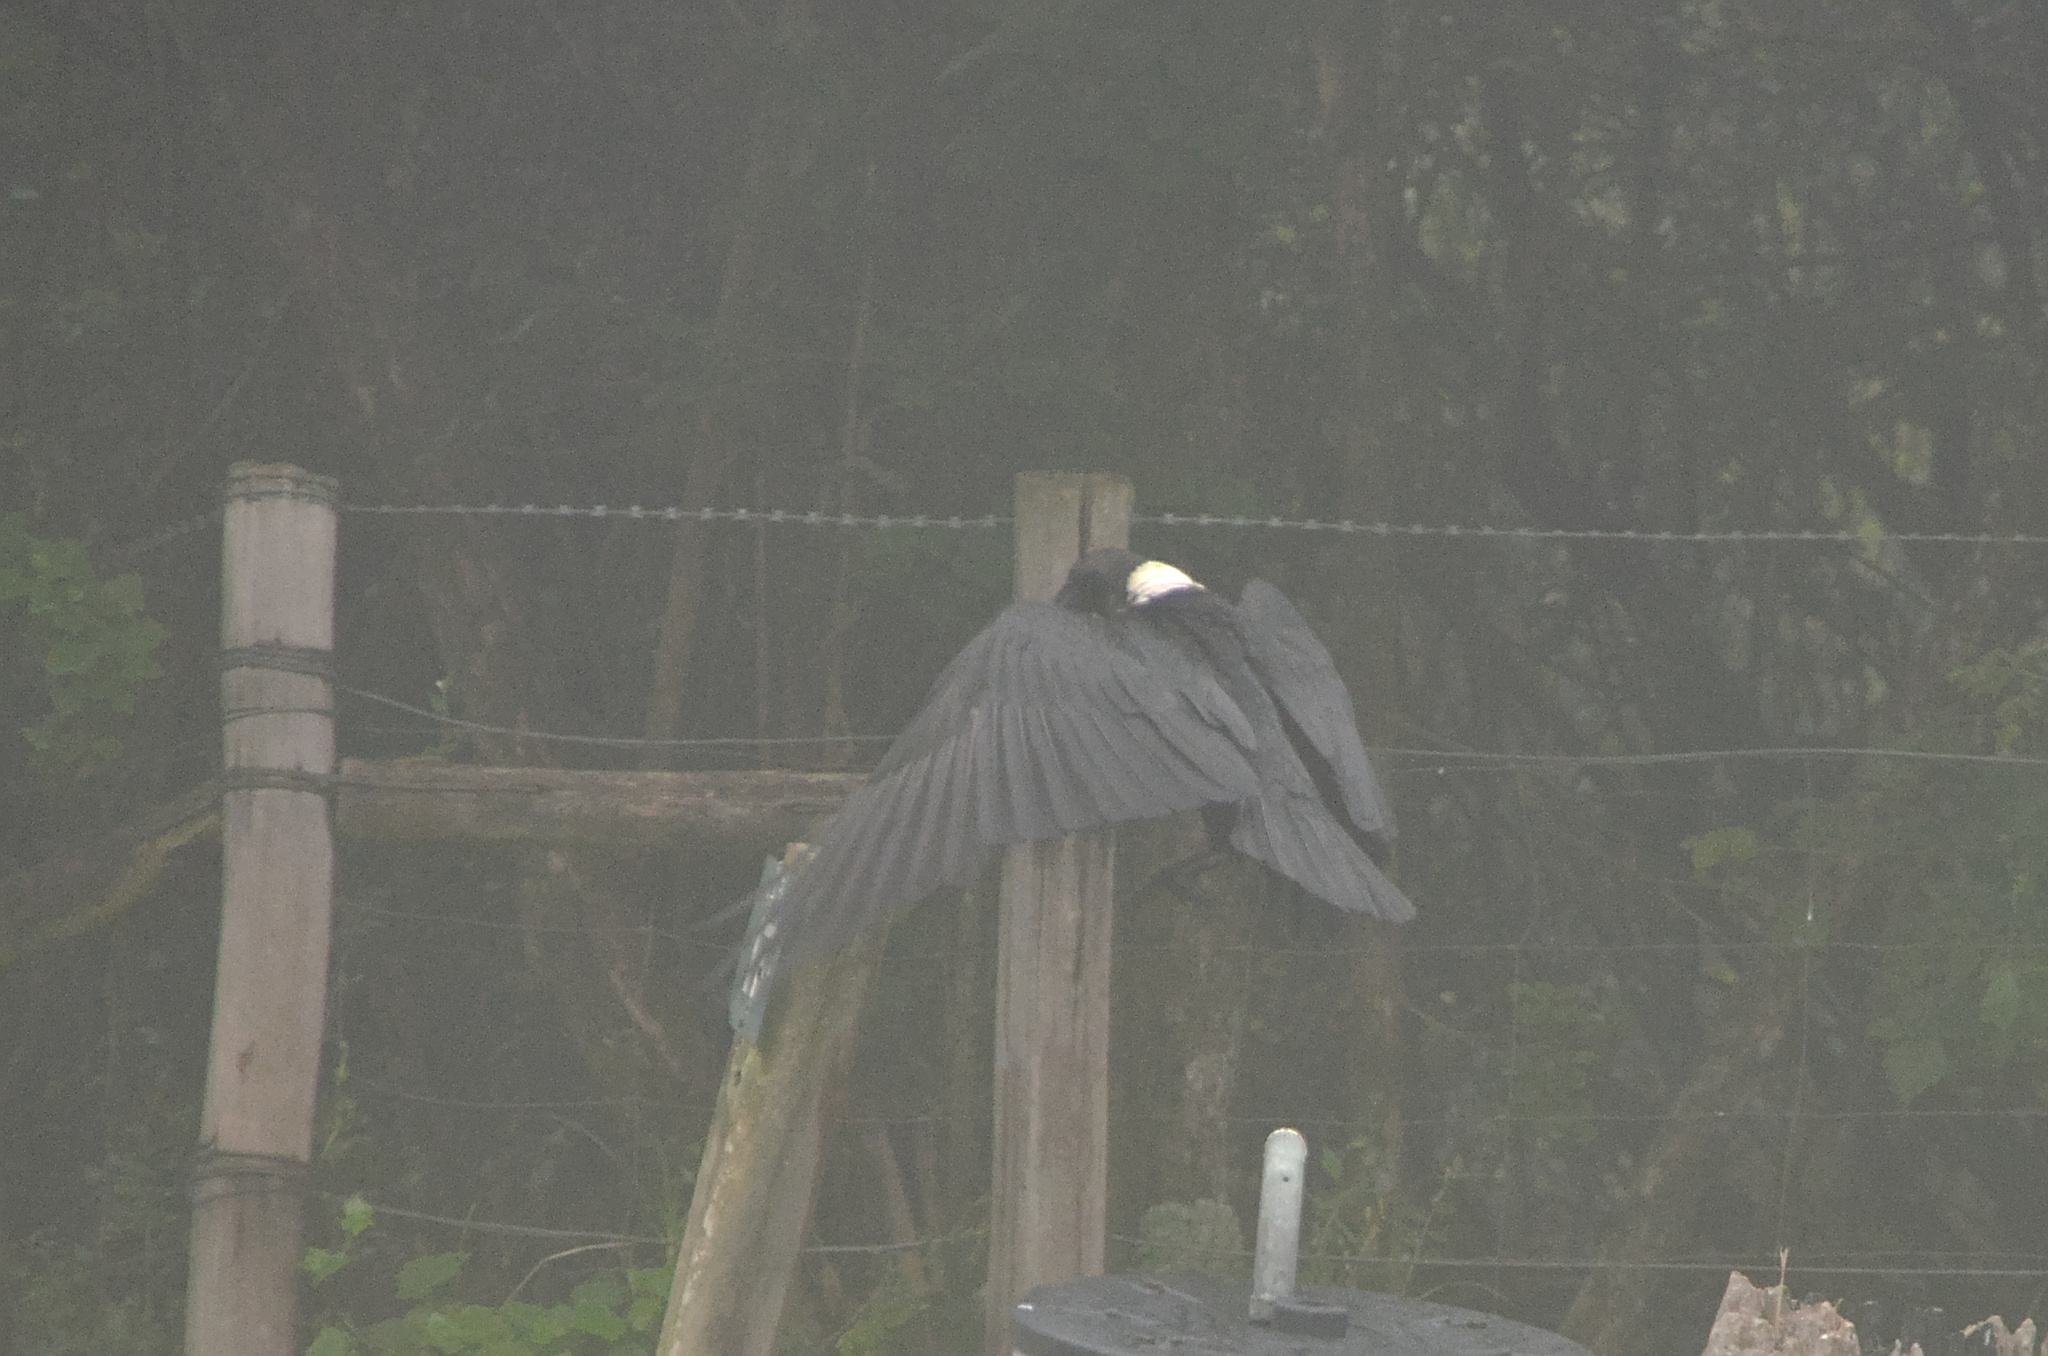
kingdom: Animalia
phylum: Chordata
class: Aves
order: Passeriformes
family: Corvidae
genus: Corvus
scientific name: Corvus albicollis
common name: White-necked raven
